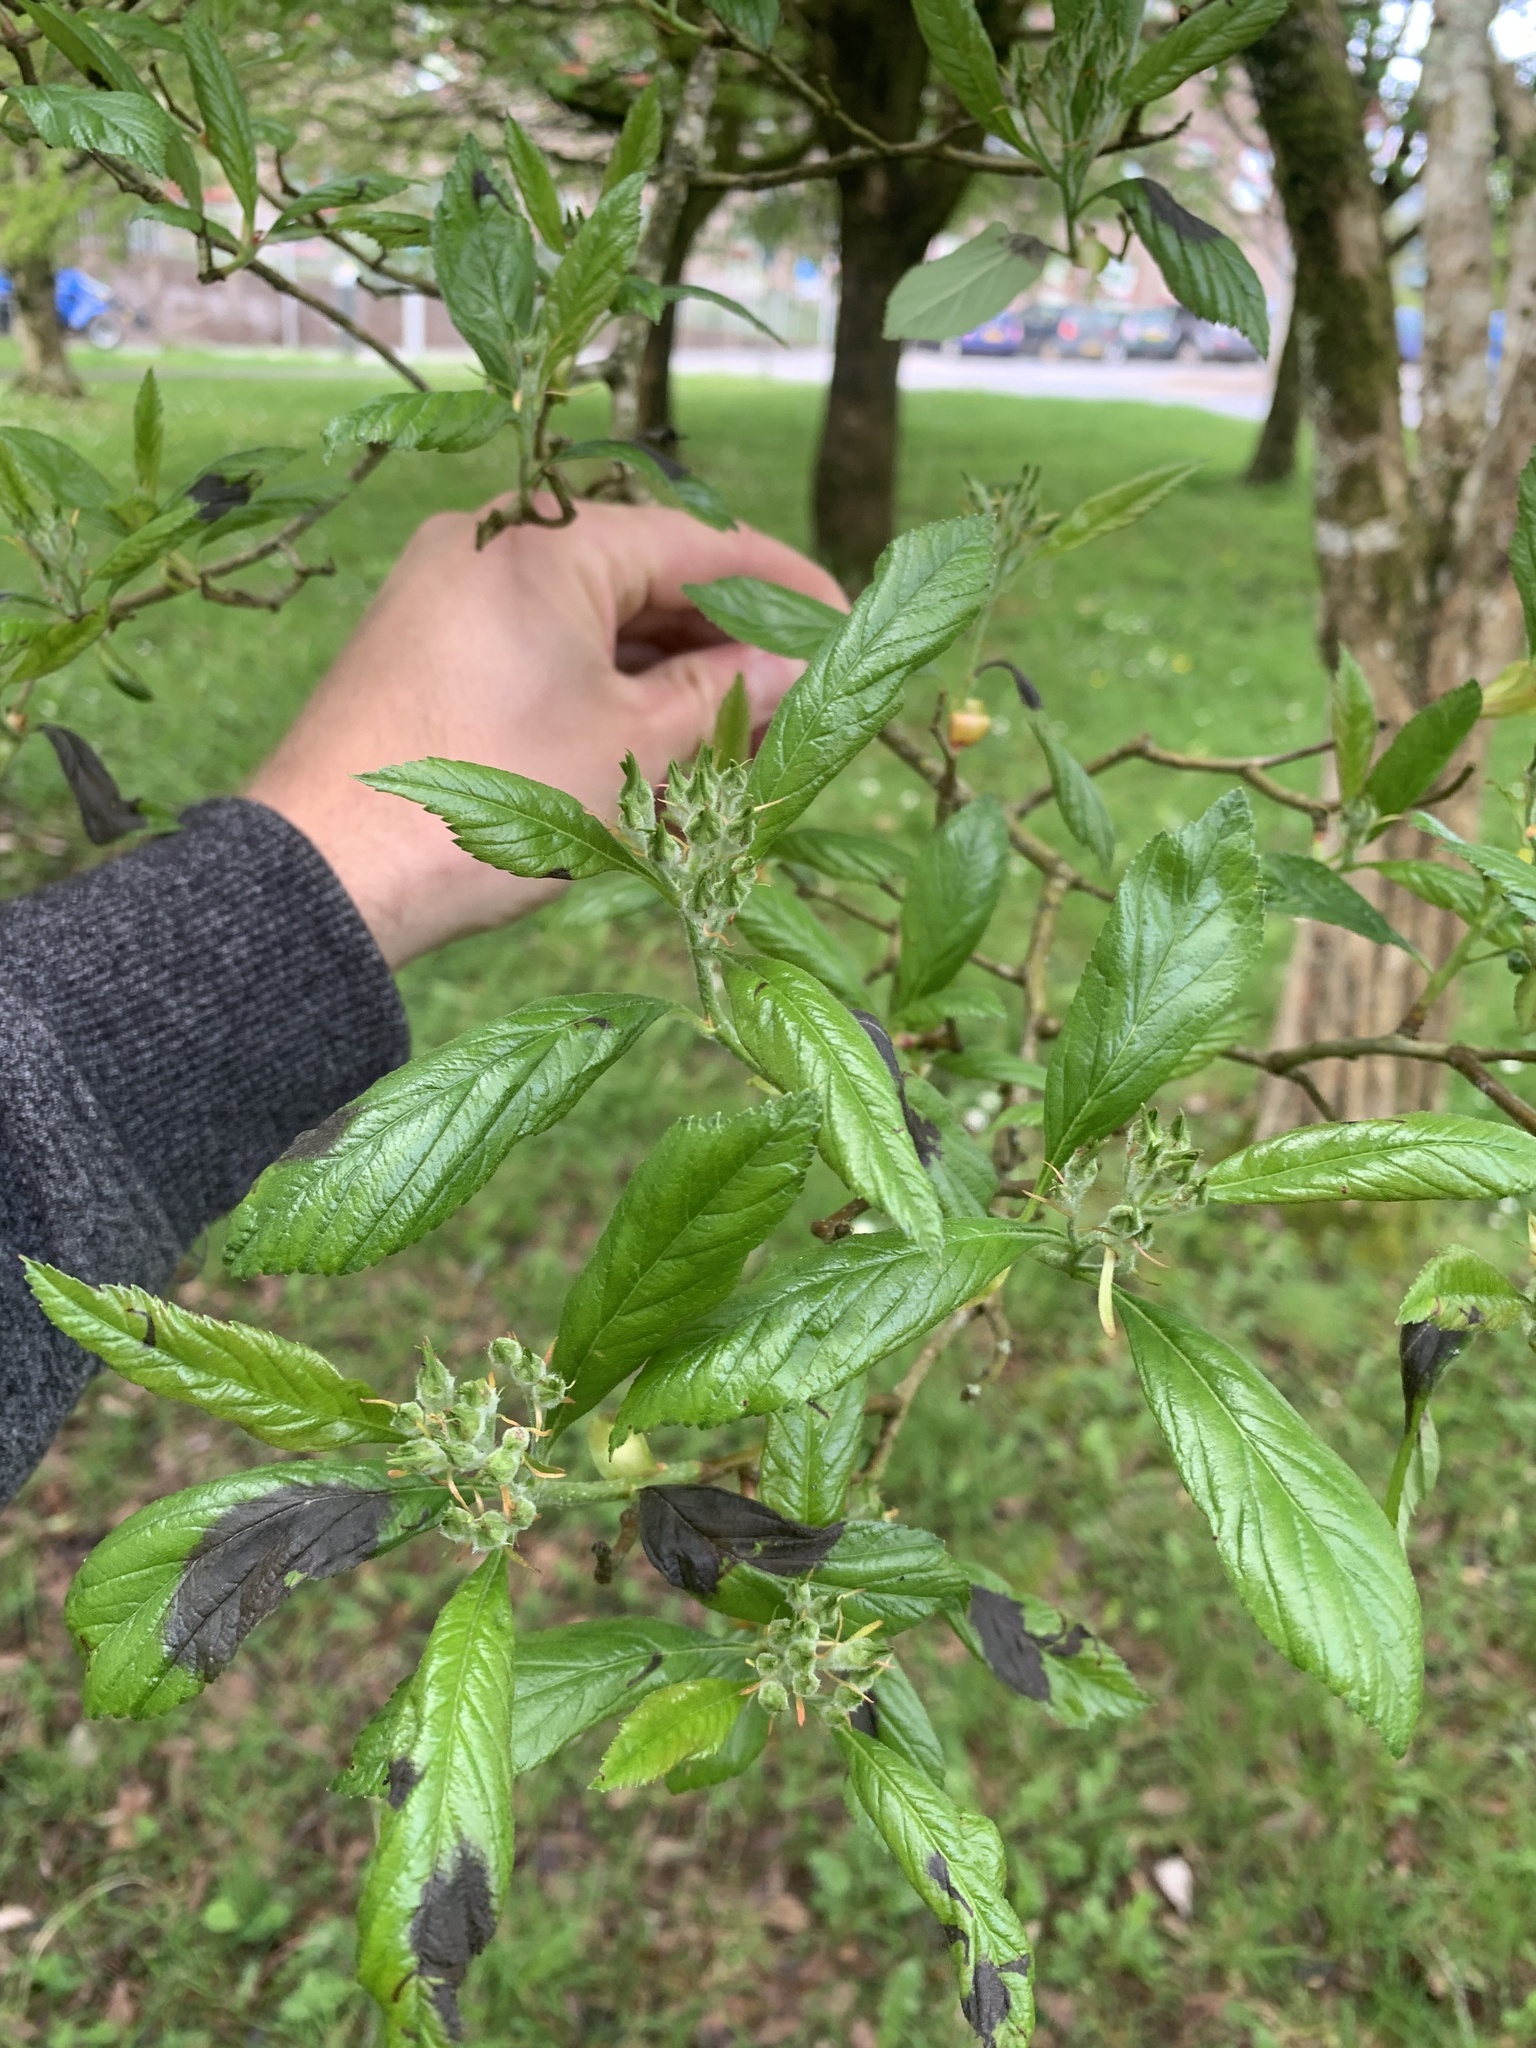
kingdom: Plantae
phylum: Tracheophyta
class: Magnoliopsida
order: Rosales
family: Rhamnaceae
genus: Pomaderris
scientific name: Pomaderris apetala
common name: Hazel pomaderris
